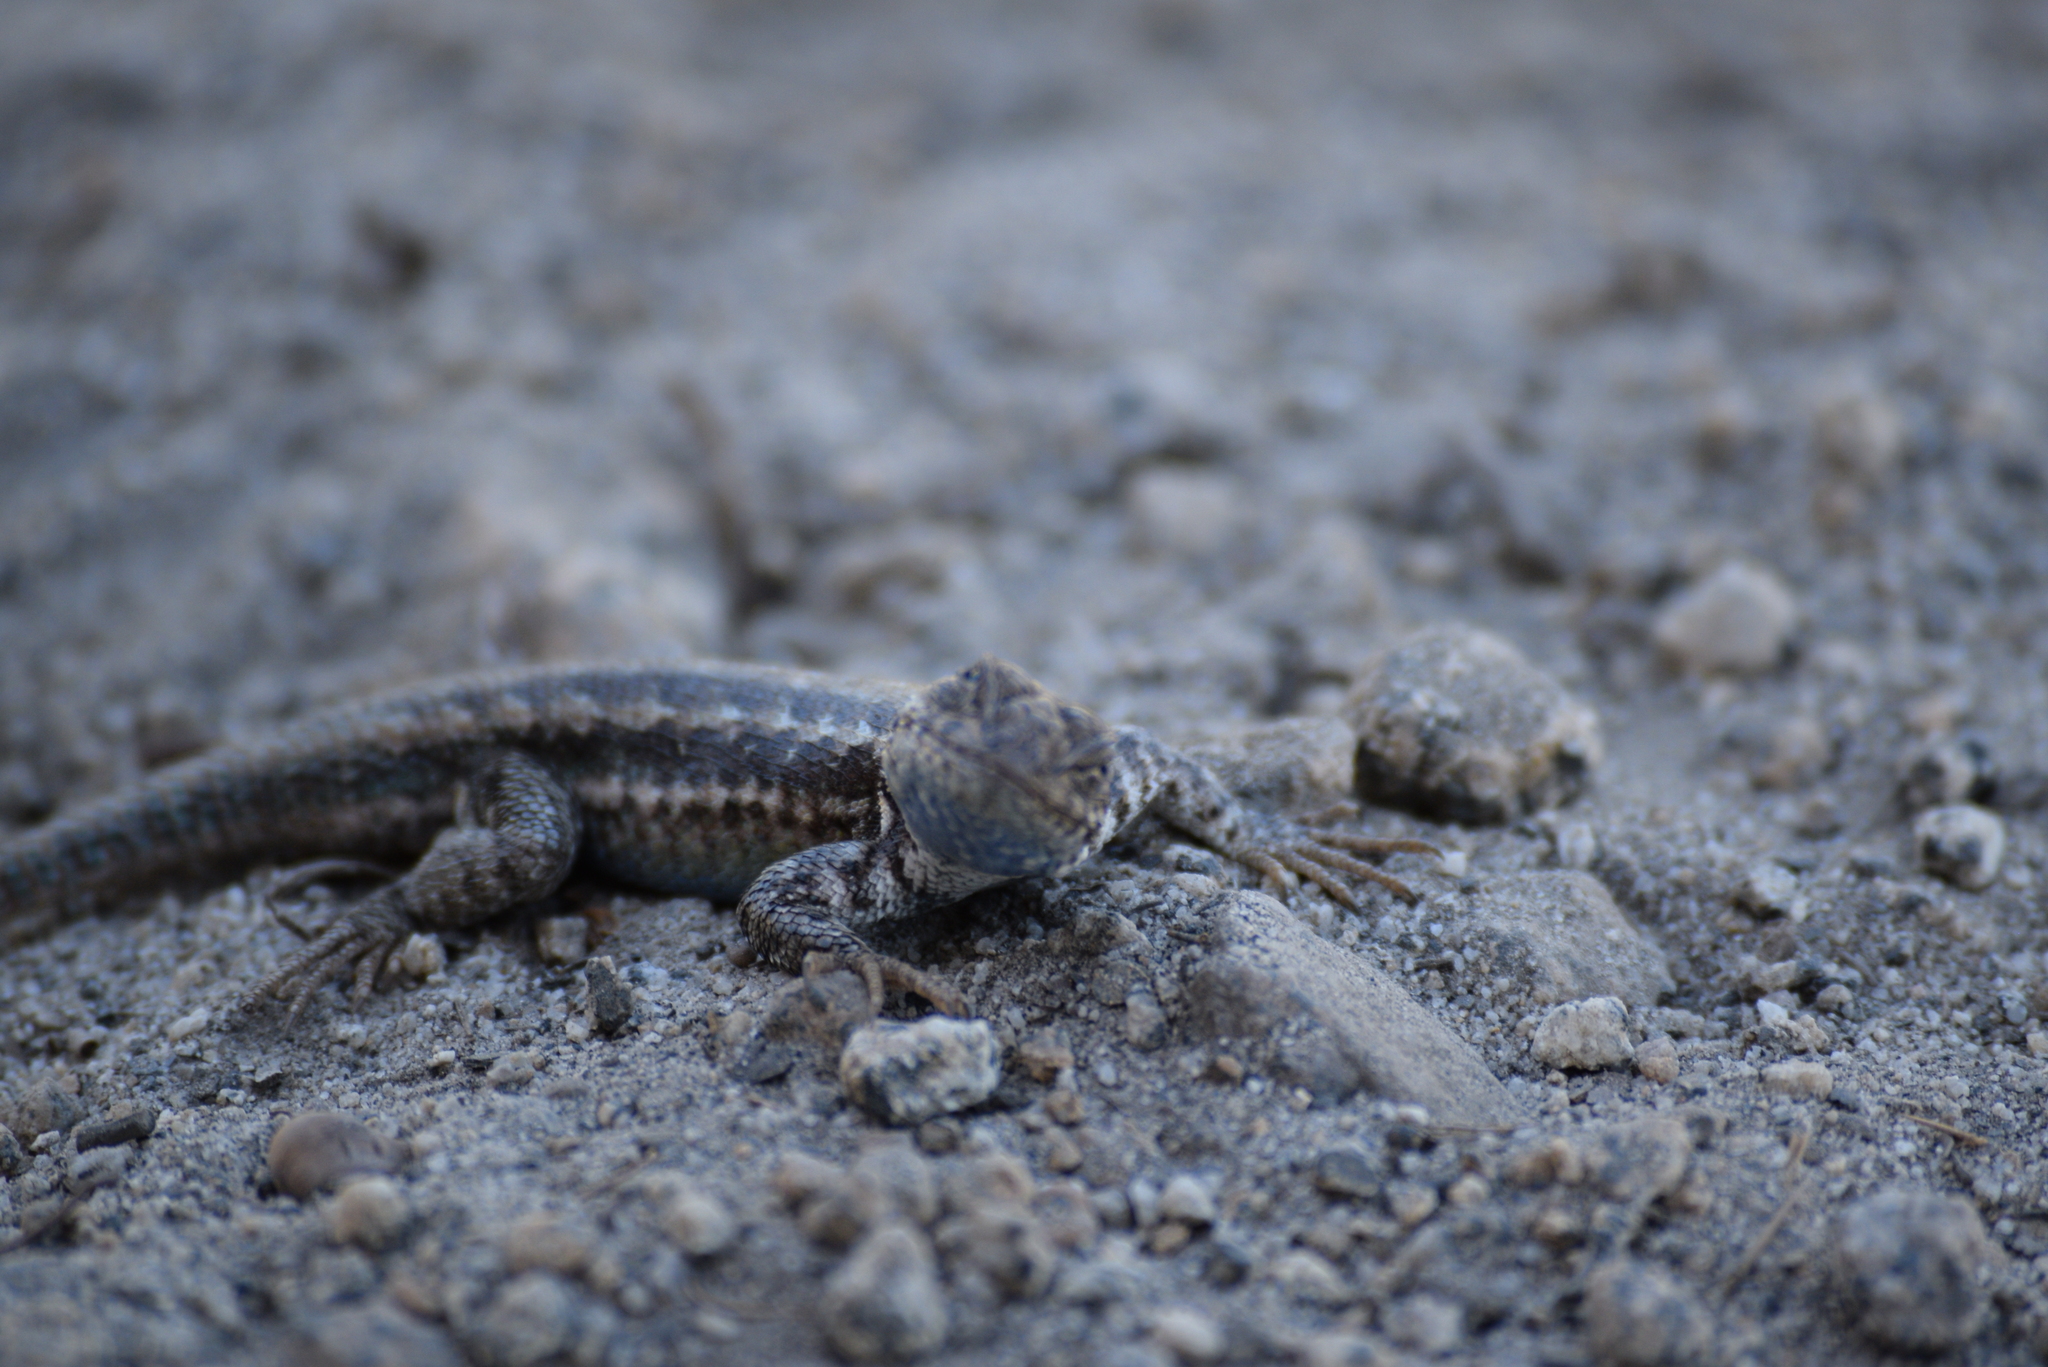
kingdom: Animalia
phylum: Chordata
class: Squamata
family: Phrynosomatidae
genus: Sceloporus
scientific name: Sceloporus graciosus
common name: Sagebrush lizard
